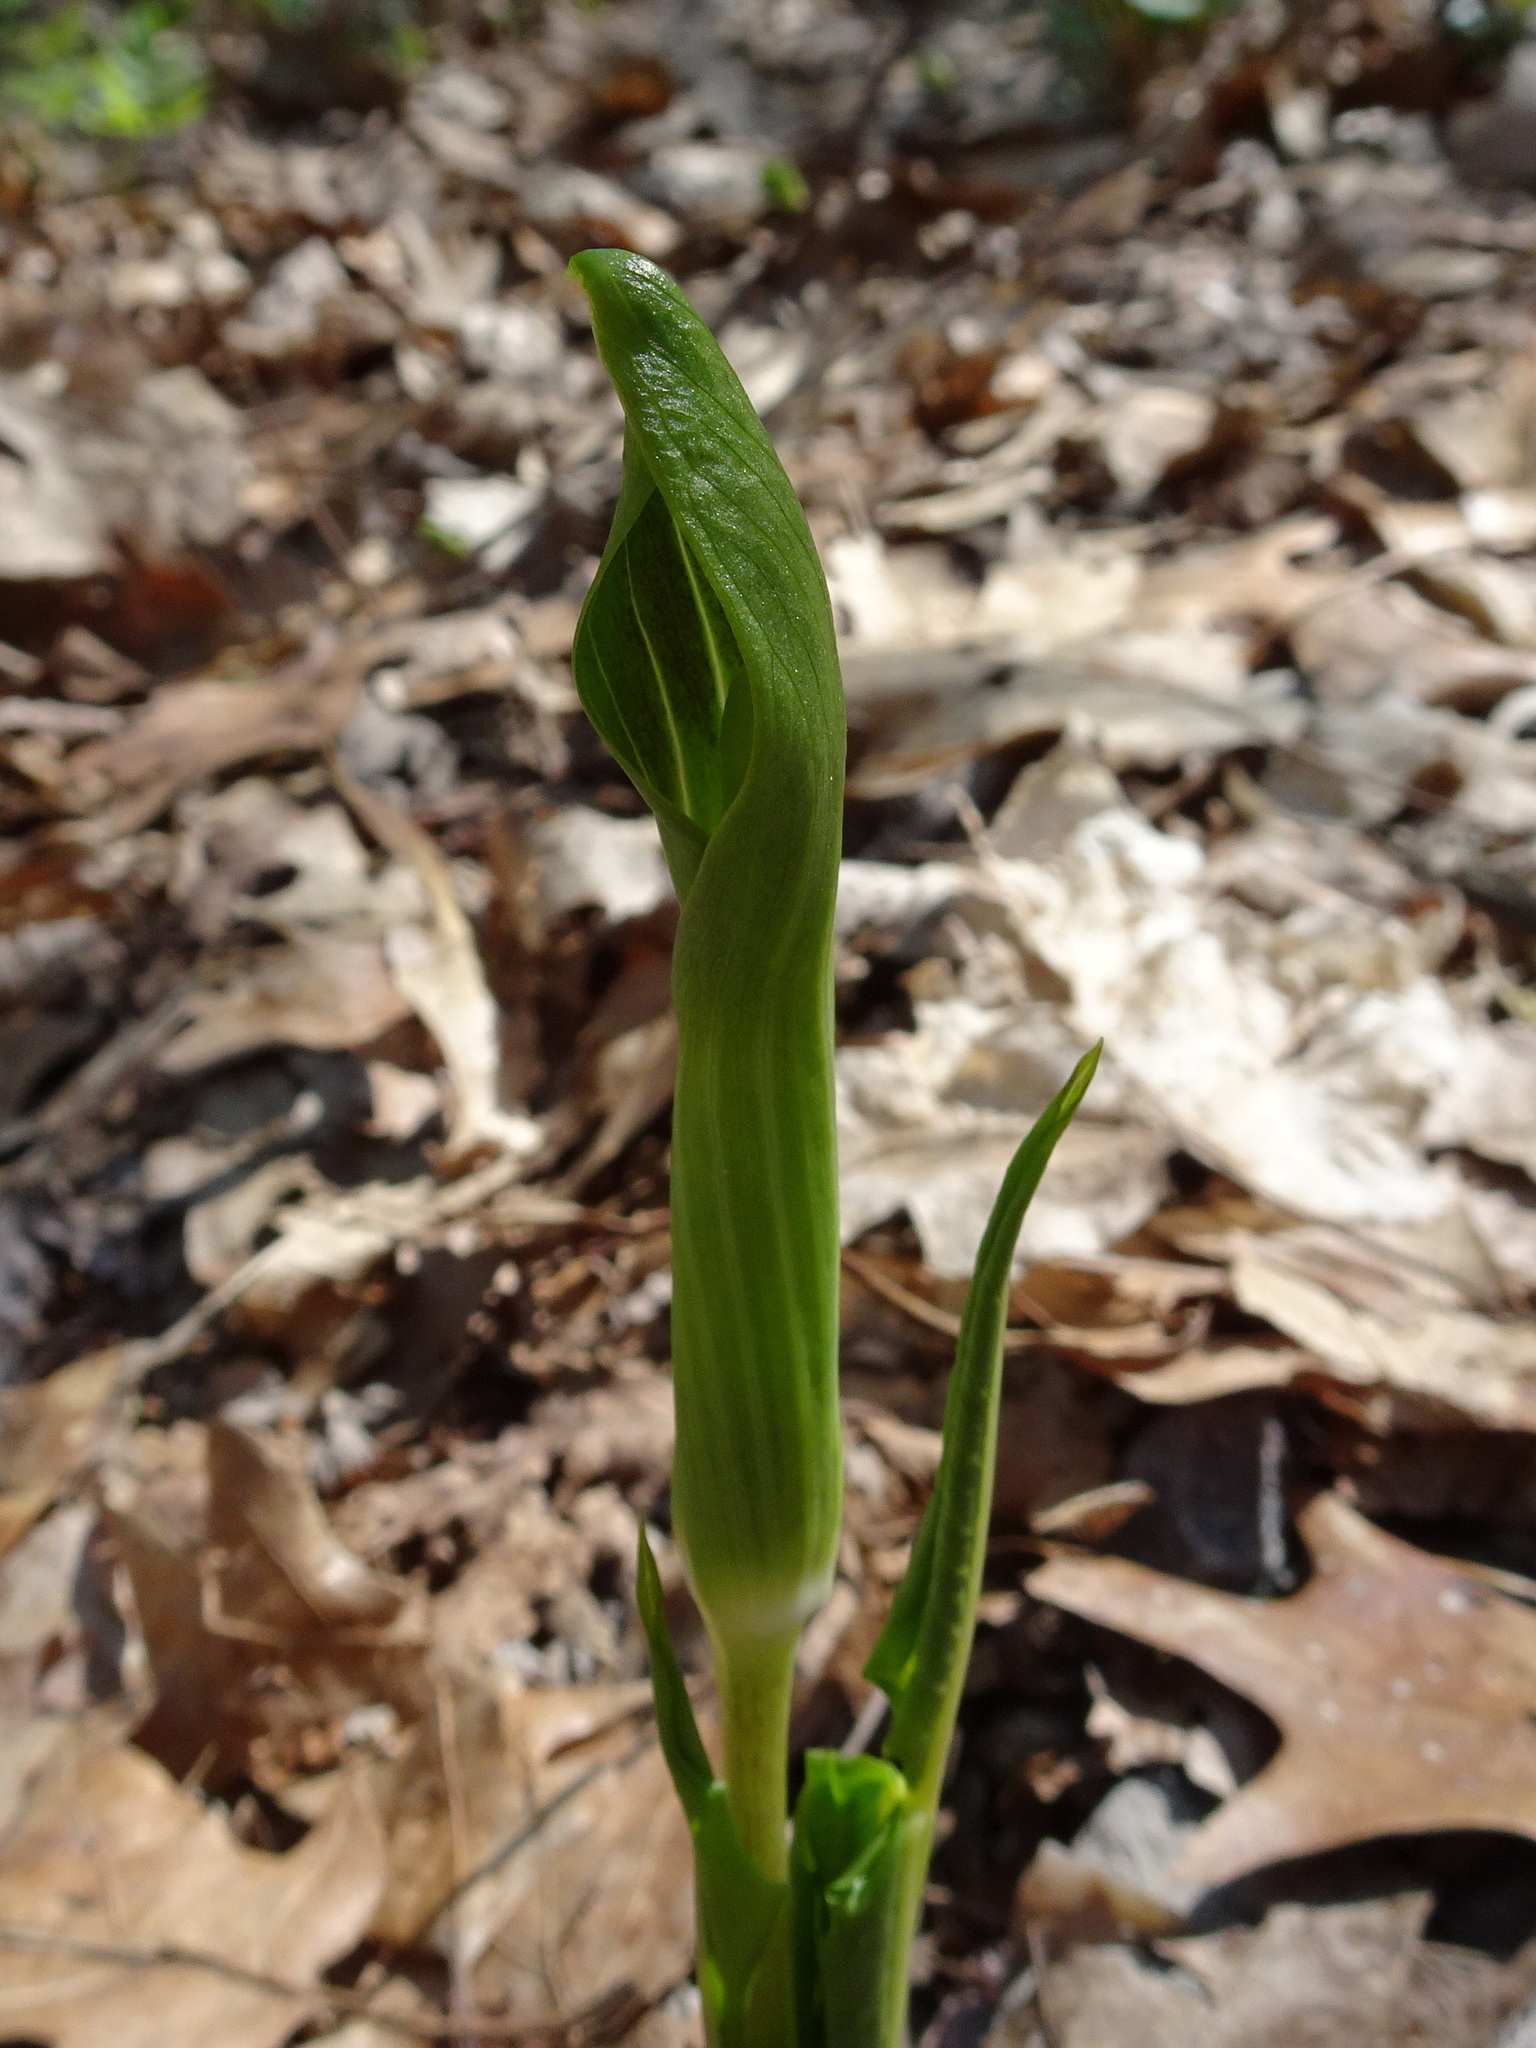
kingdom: Plantae
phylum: Tracheophyta
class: Liliopsida
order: Alismatales
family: Araceae
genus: Arisaema
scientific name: Arisaema triphyllum
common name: Jack-in-the-pulpit
